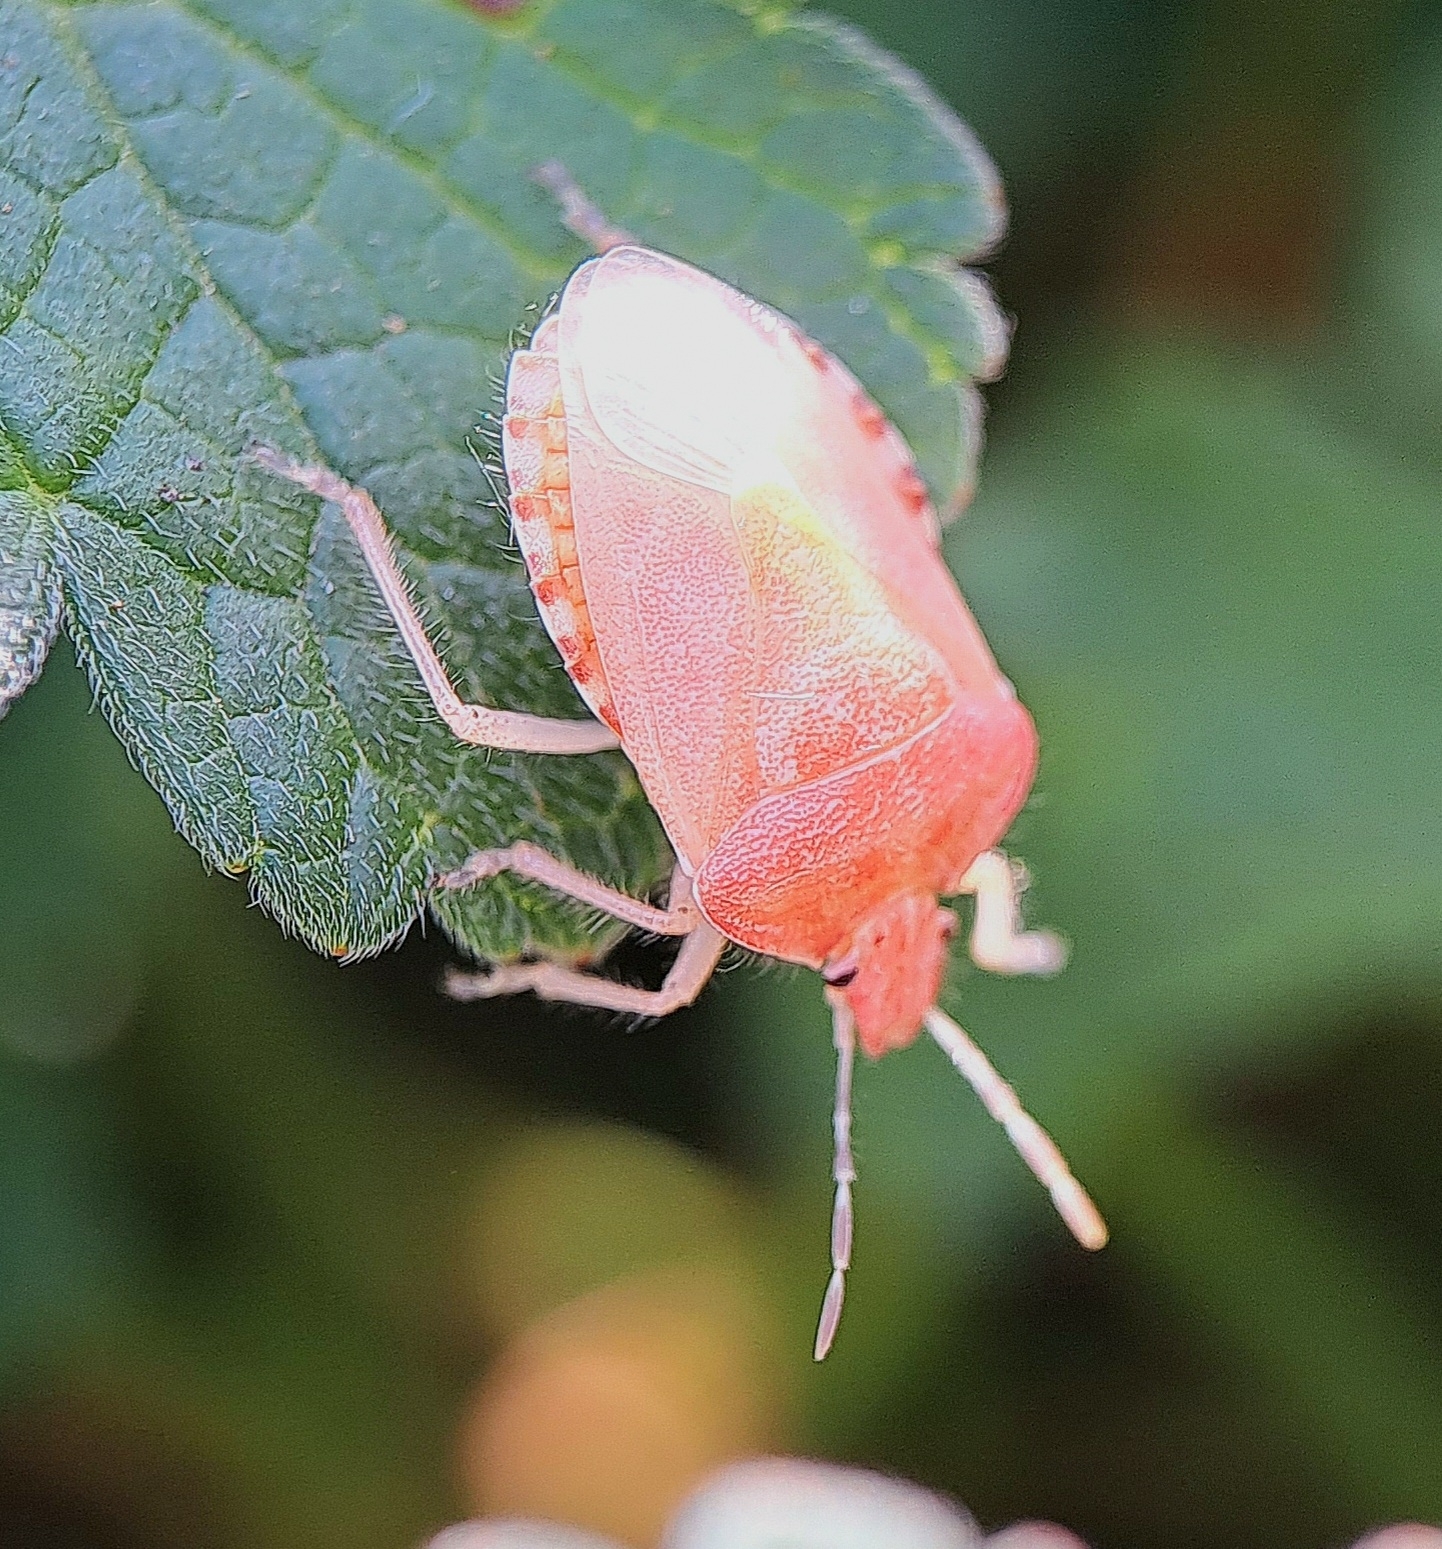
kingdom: Animalia
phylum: Arthropoda
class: Insecta
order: Hemiptera
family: Pentatomidae
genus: Dolycoris
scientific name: Dolycoris baccarum
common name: Sloe bug
